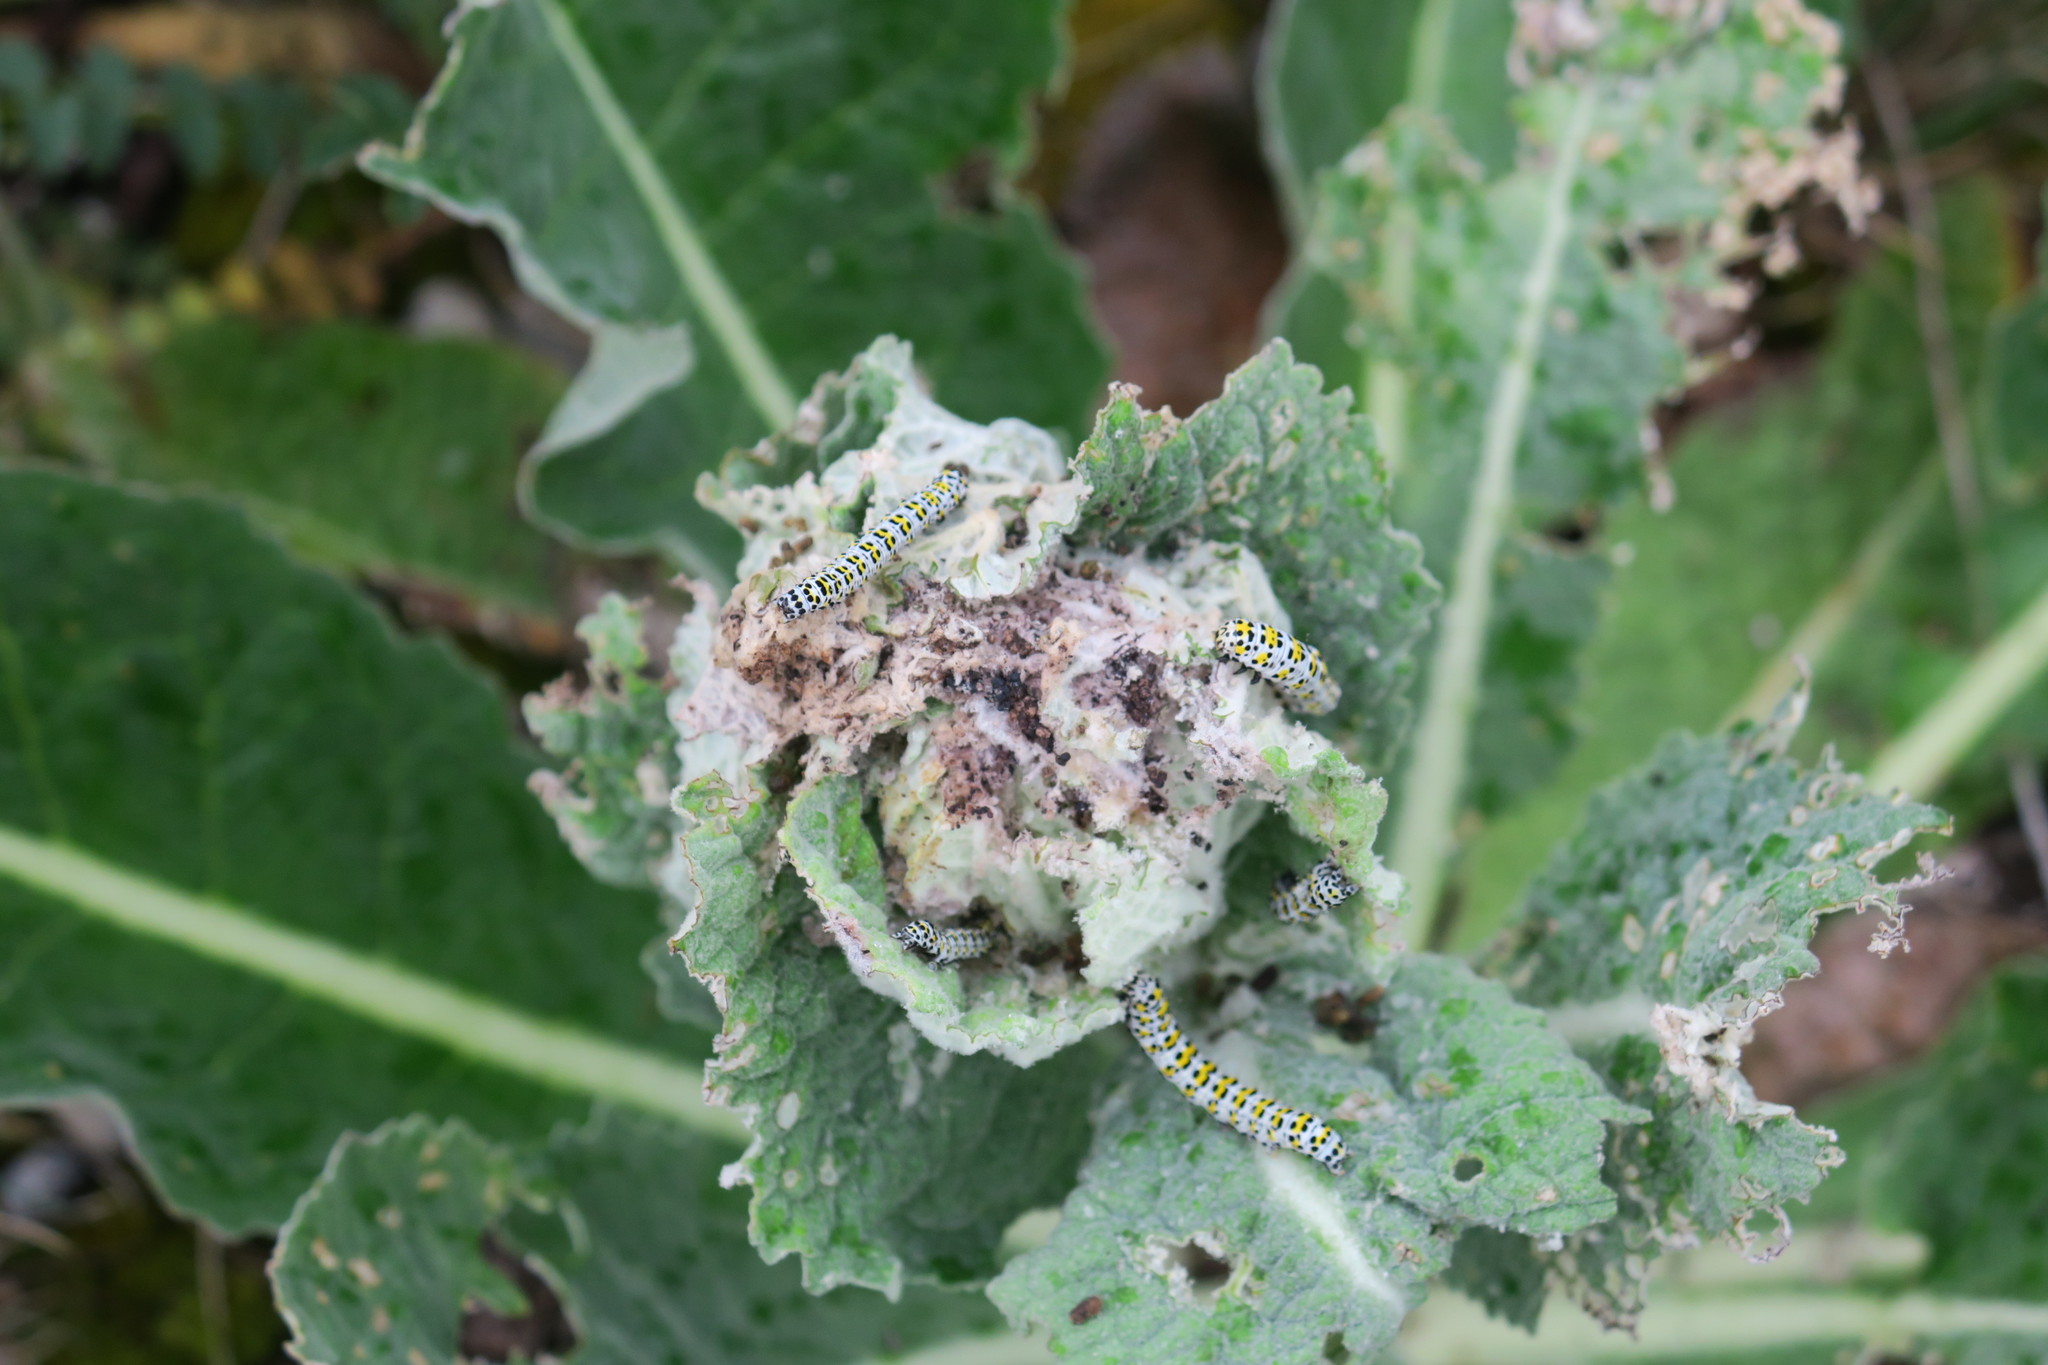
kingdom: Animalia
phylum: Arthropoda
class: Insecta
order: Lepidoptera
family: Noctuidae
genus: Cucullia
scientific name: Cucullia verbasci
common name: Mullein
